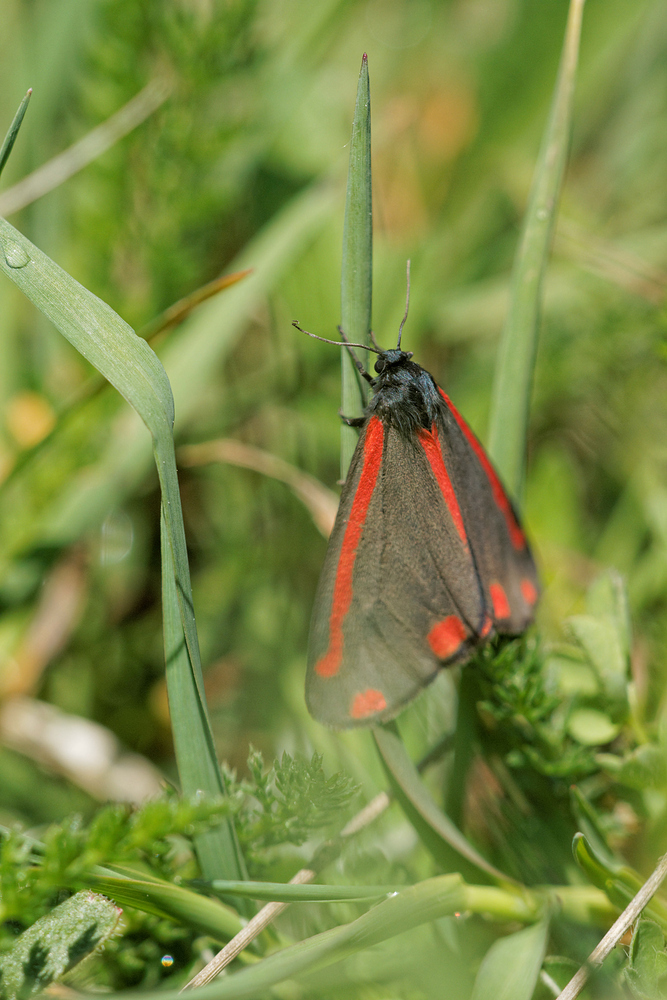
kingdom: Animalia
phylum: Arthropoda
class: Insecta
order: Lepidoptera
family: Erebidae
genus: Tyria
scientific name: Tyria jacobaeae
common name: Cinnabar
